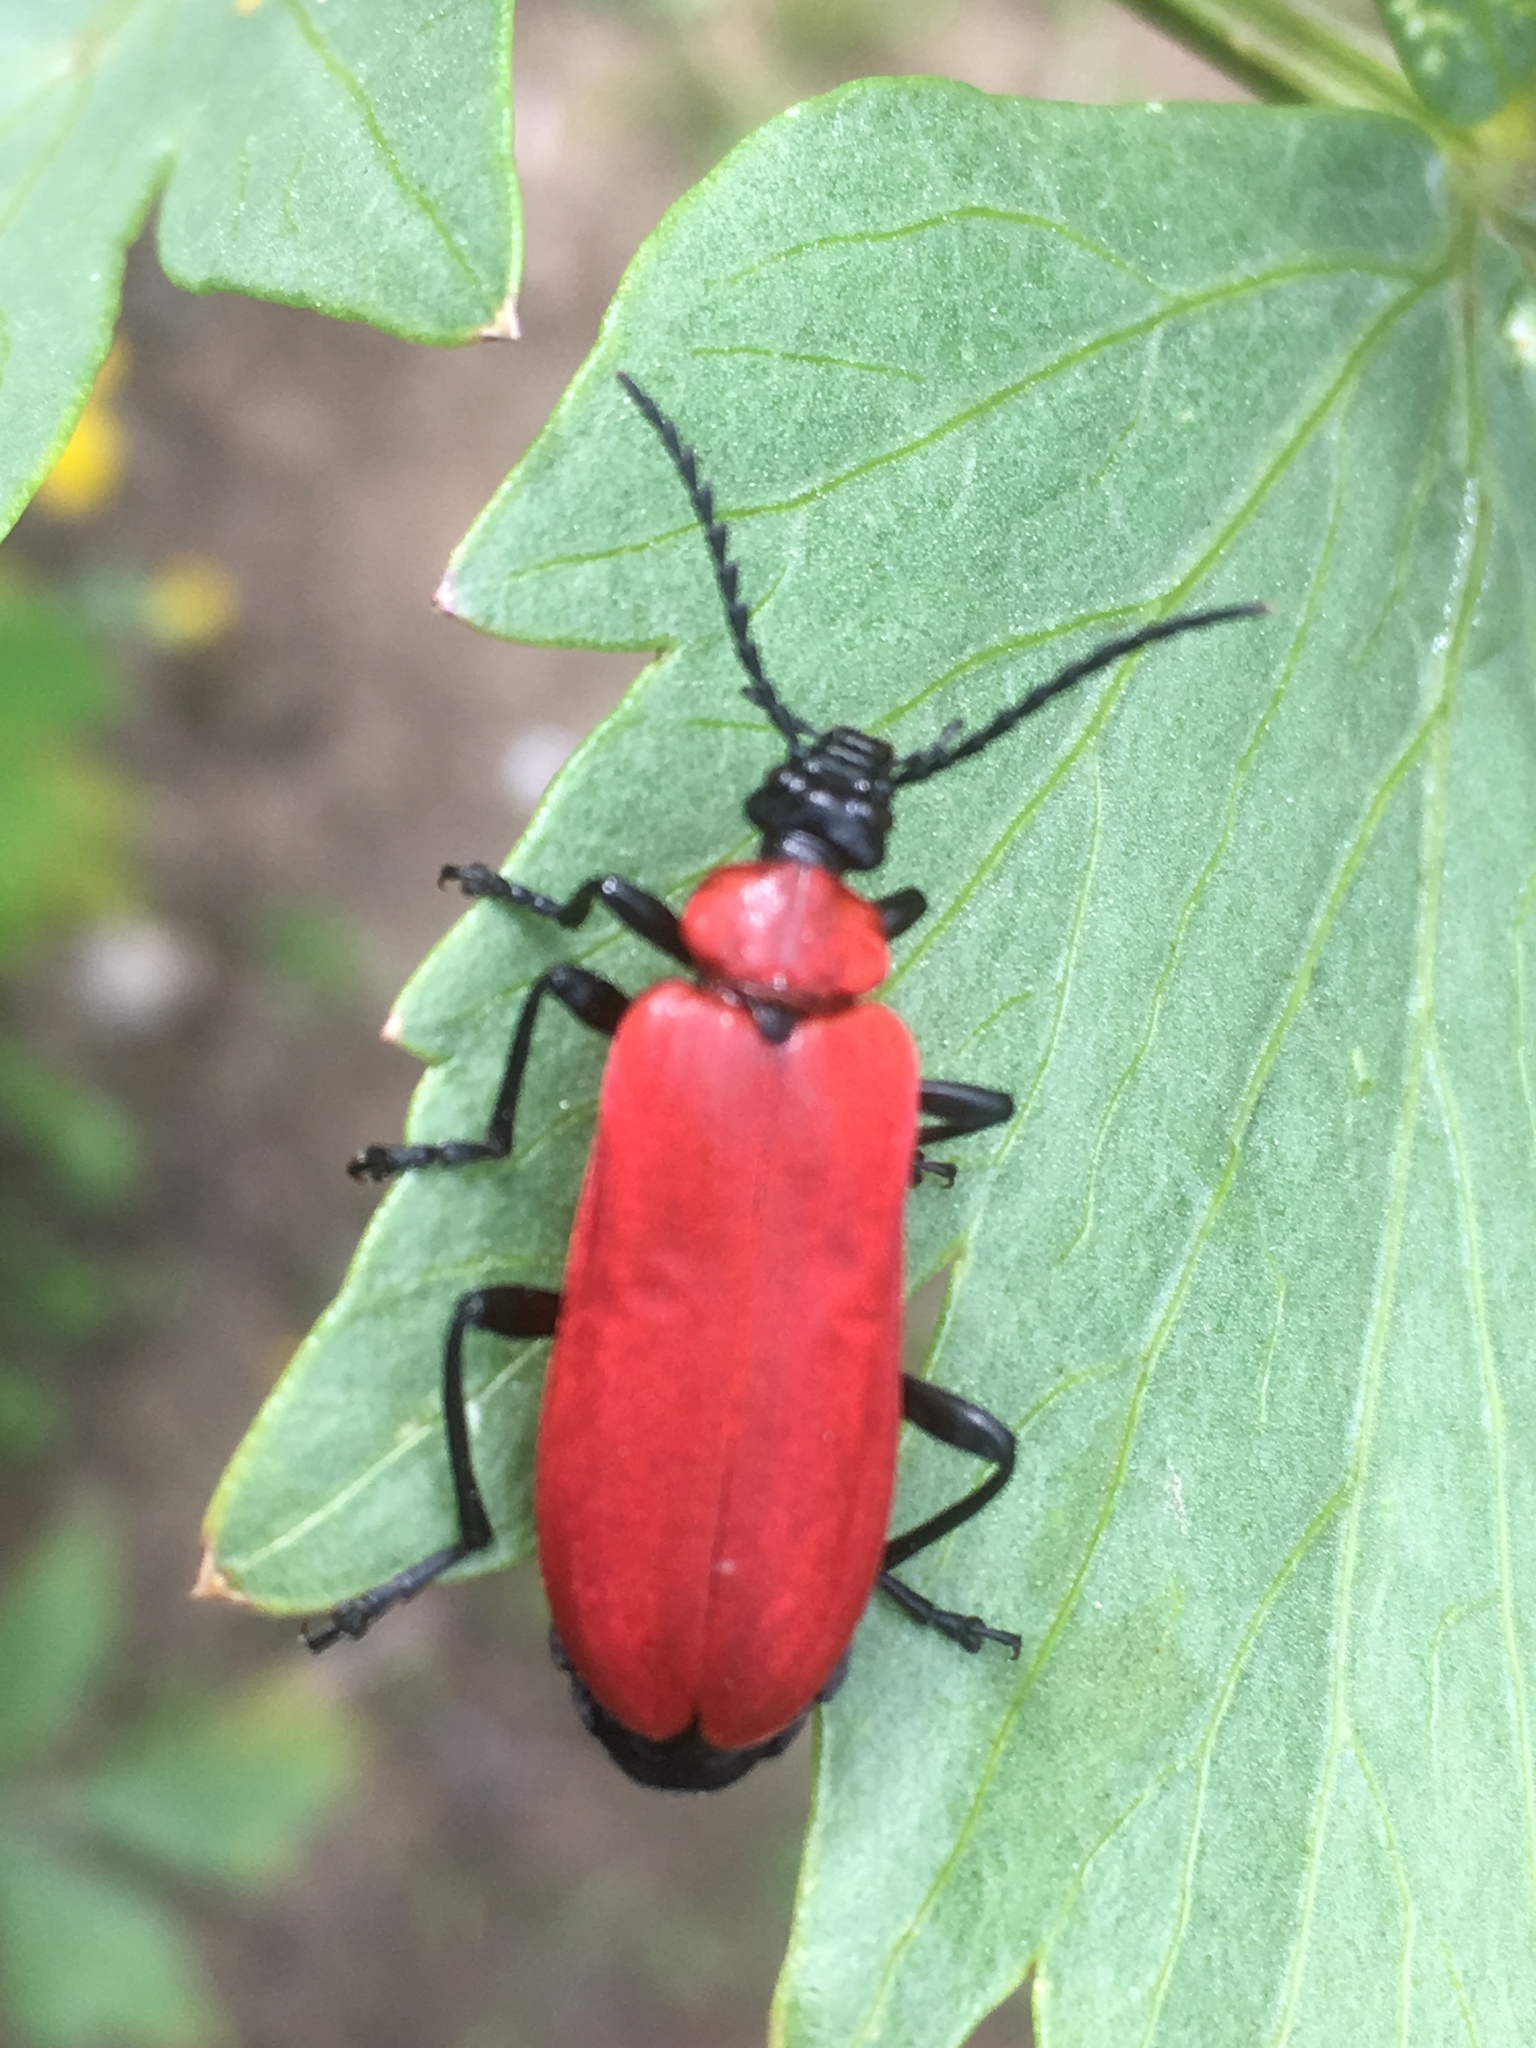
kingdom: Animalia
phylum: Arthropoda
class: Insecta
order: Coleoptera
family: Pyrochroidae
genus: Pyrochroa
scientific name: Pyrochroa coccinea
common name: Black-headed cardinal beetle
